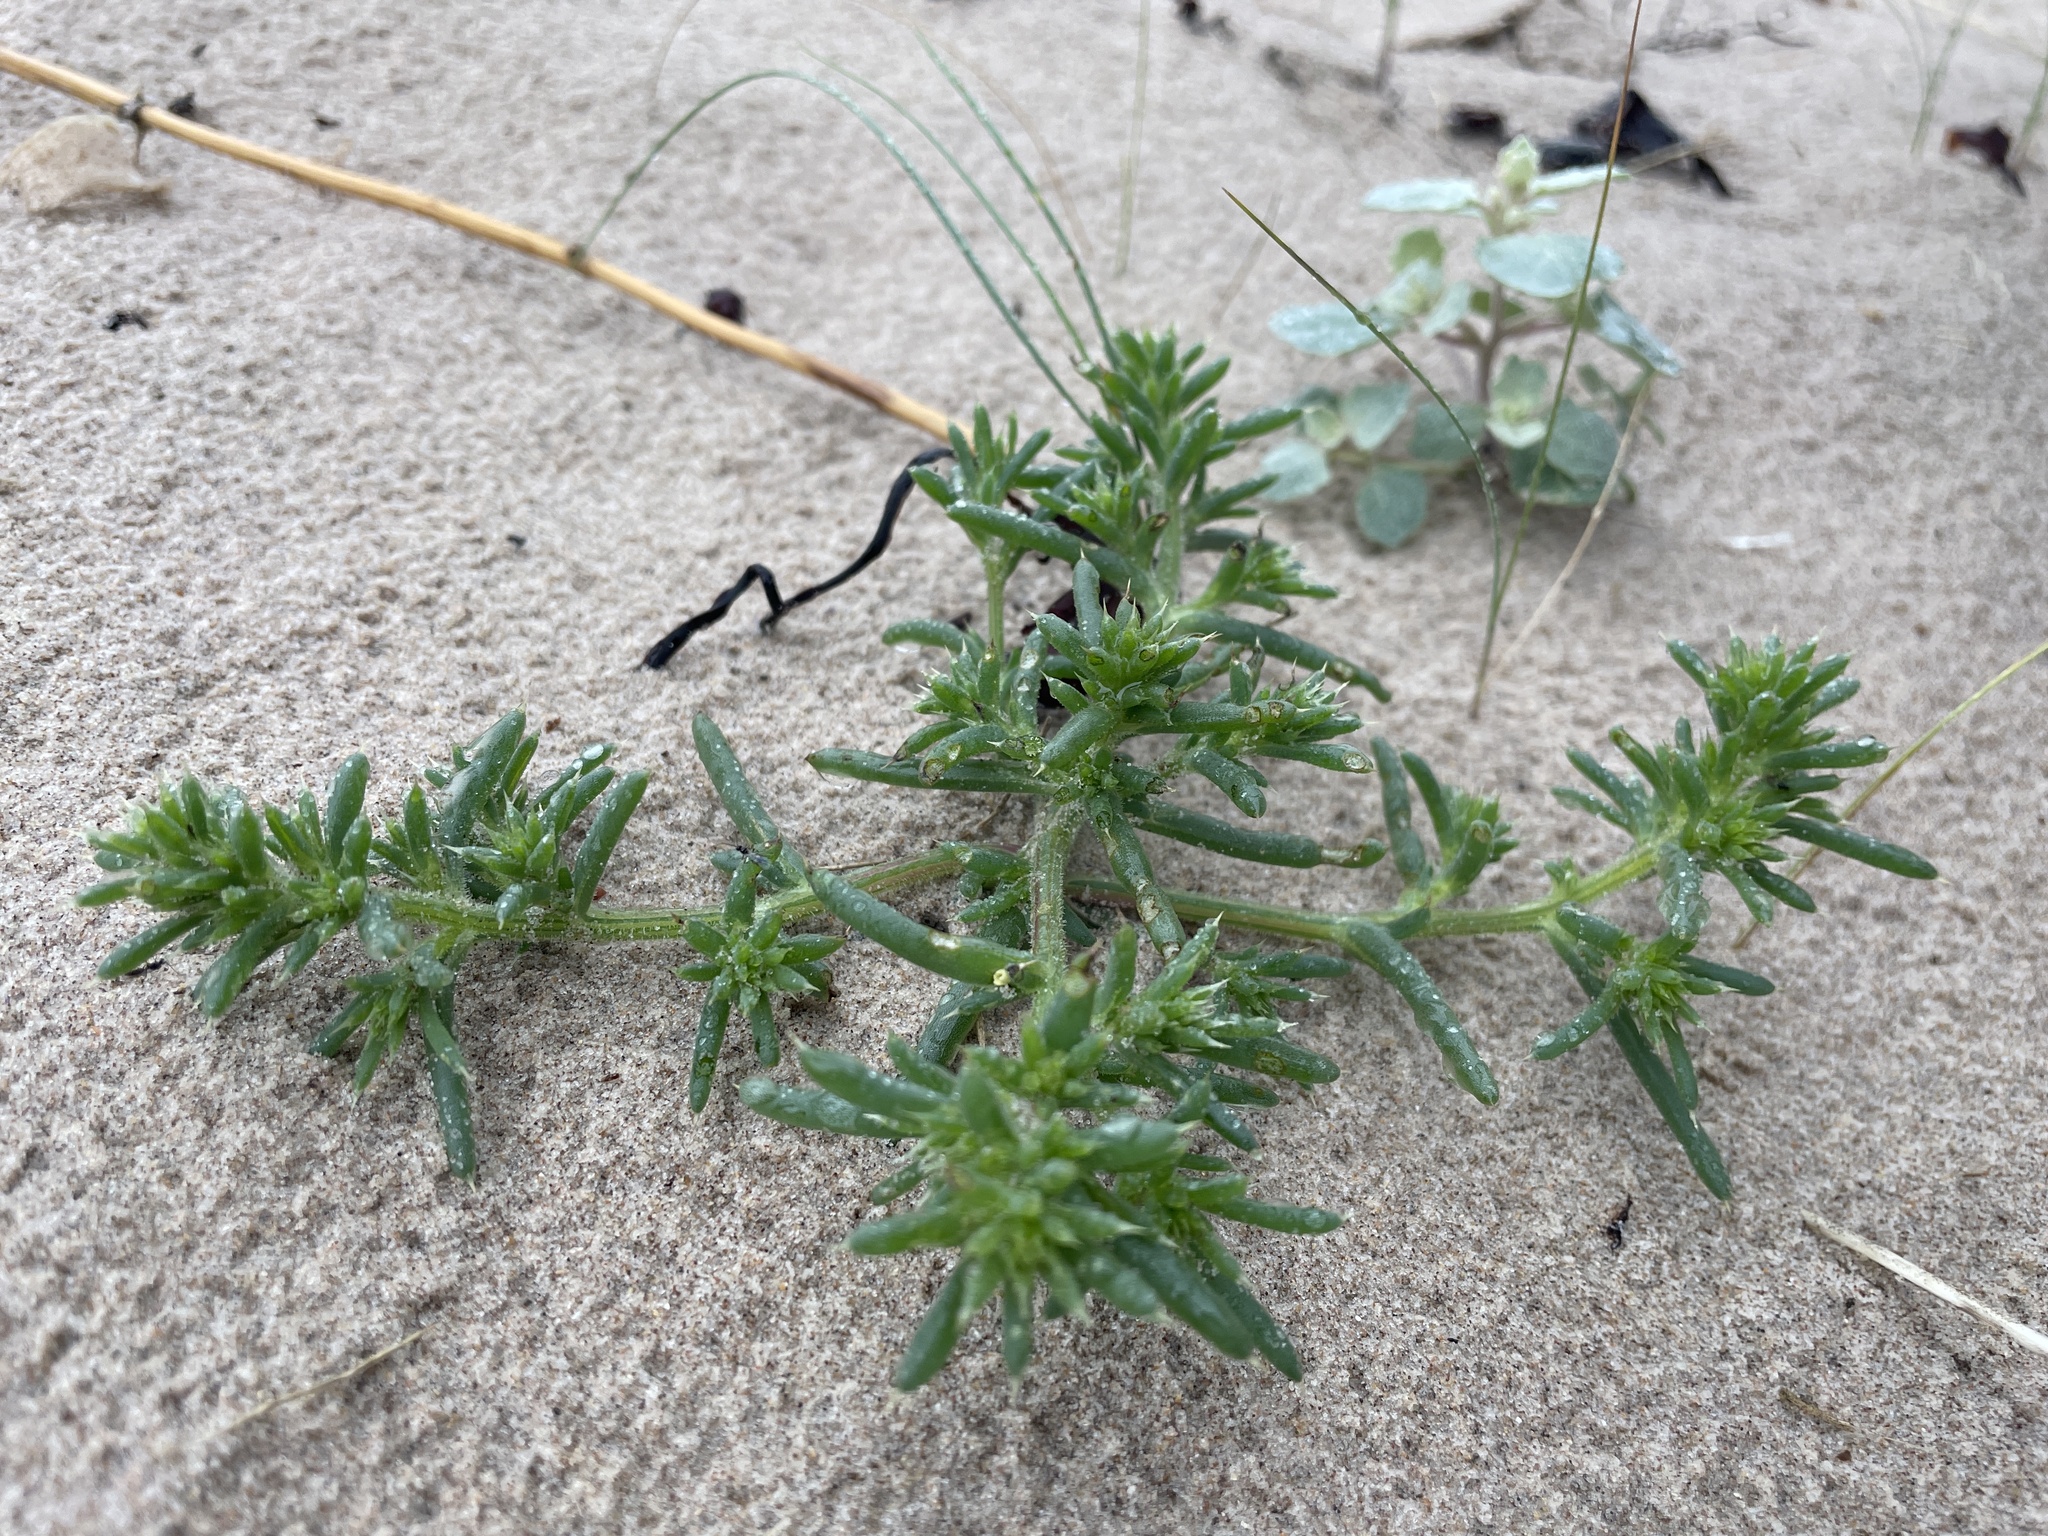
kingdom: Plantae
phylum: Tracheophyta
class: Magnoliopsida
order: Caryophyllales
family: Amaranthaceae
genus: Salsola
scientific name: Salsola kali
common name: Saltwort
